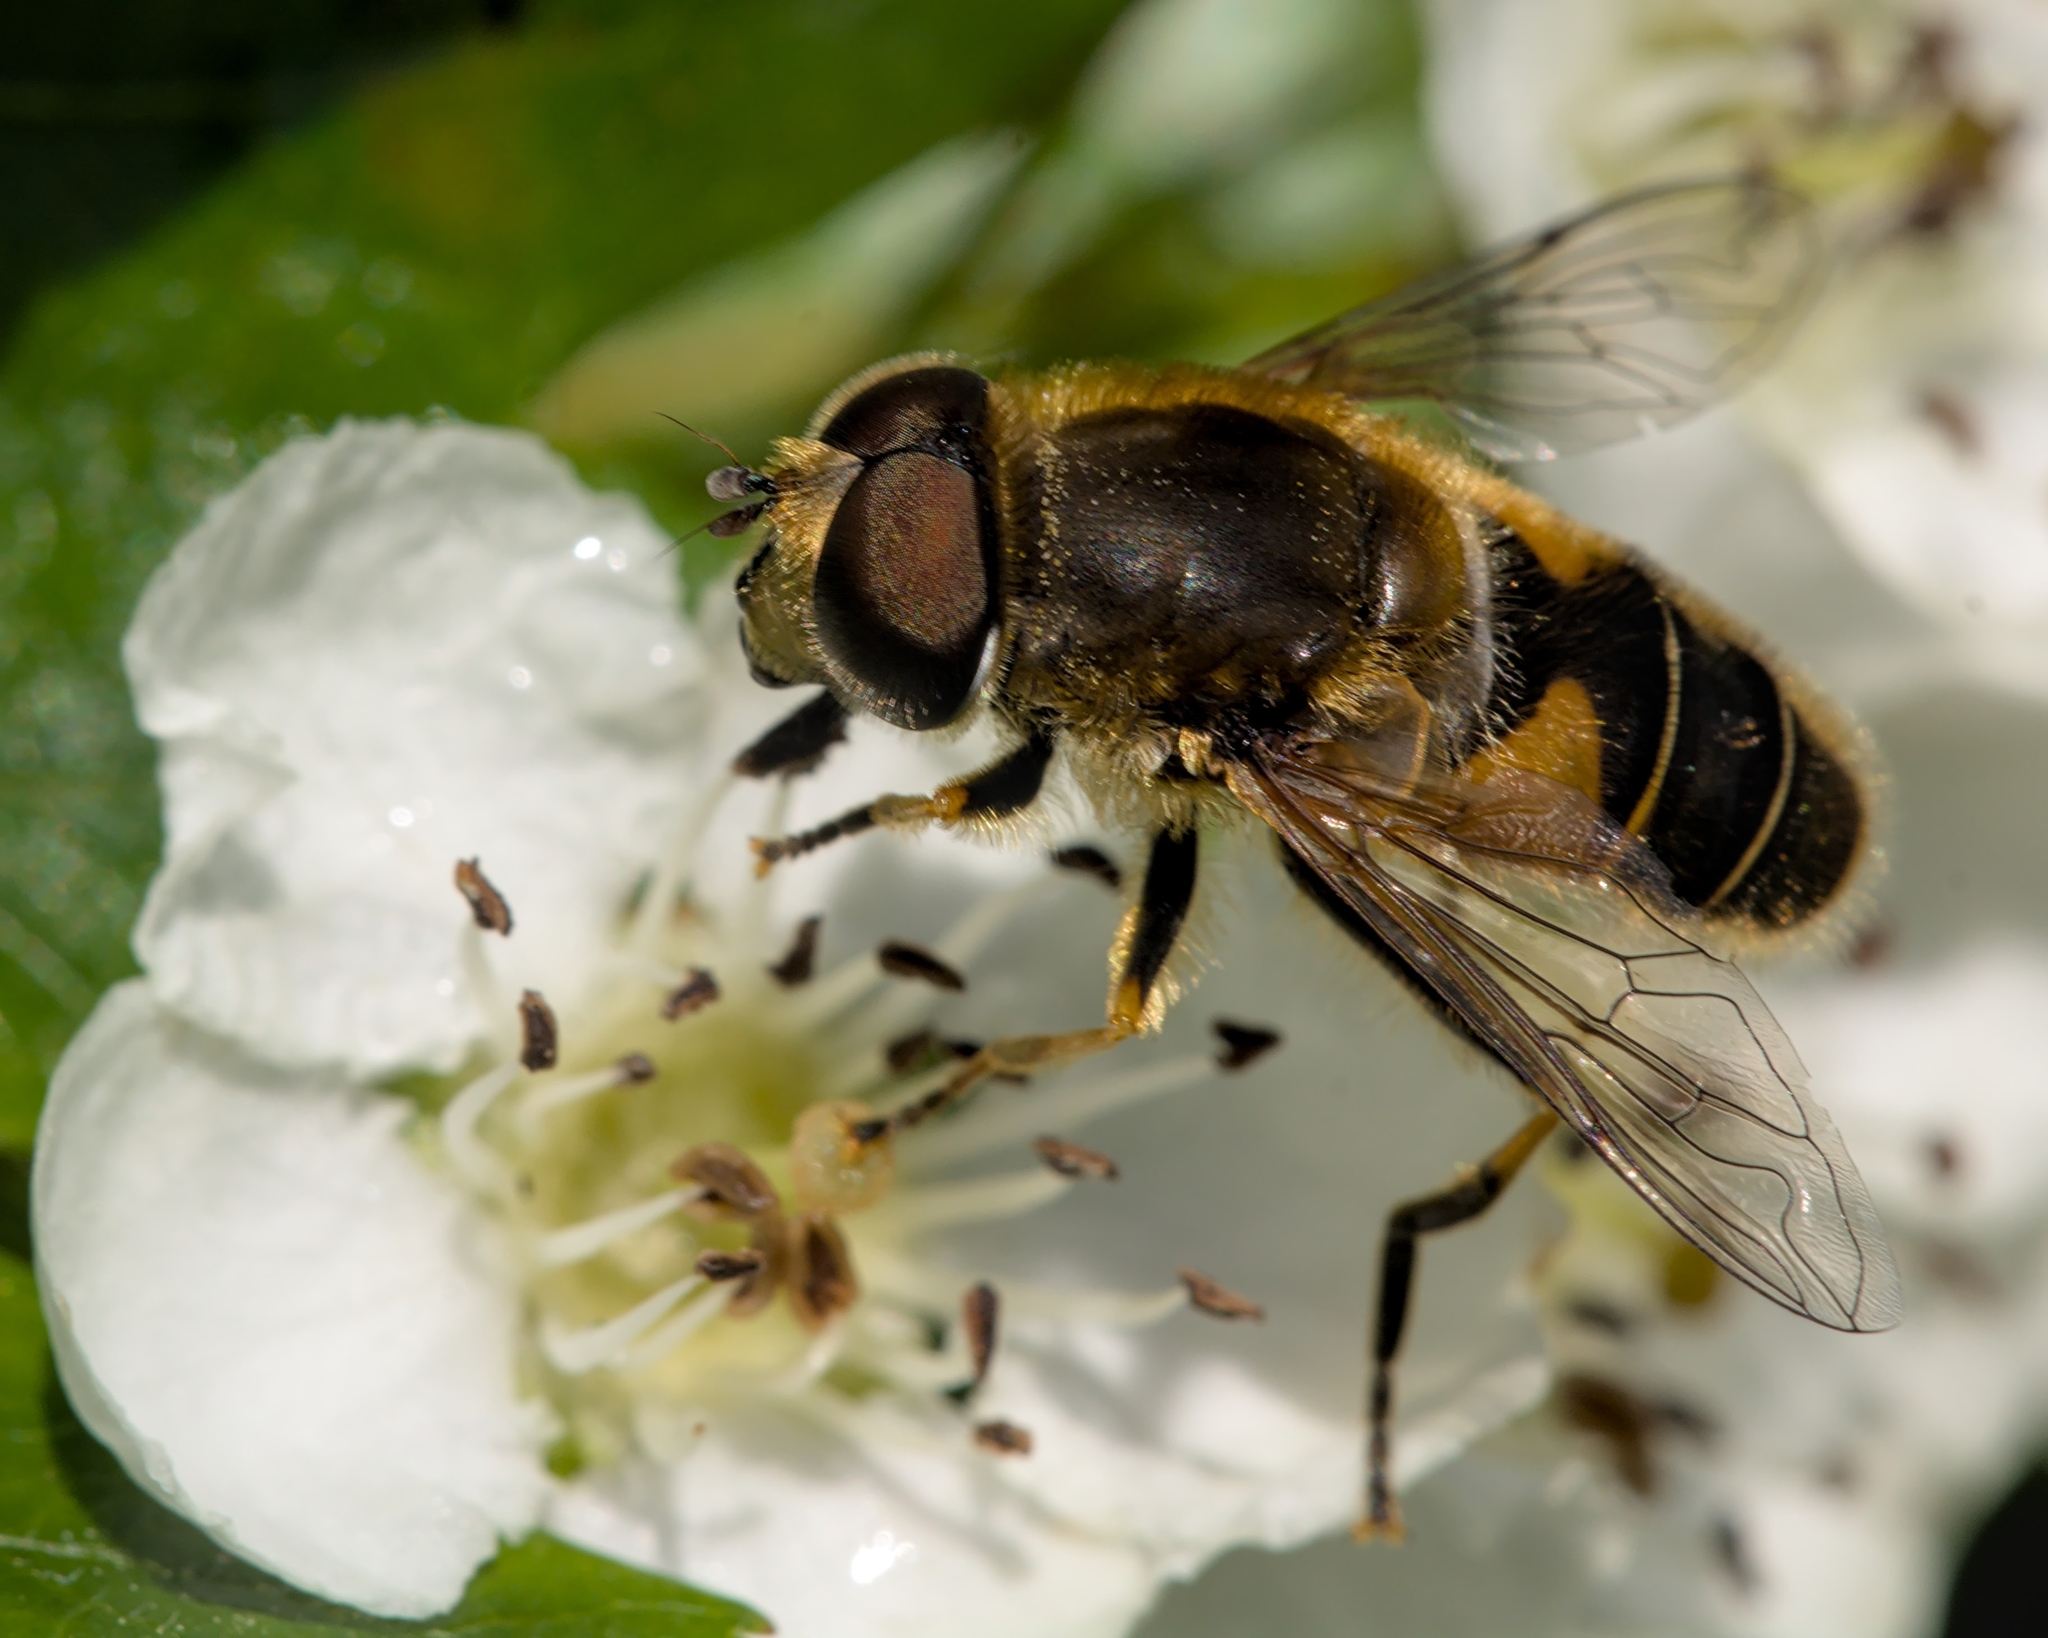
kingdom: Animalia
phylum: Arthropoda
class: Insecta
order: Diptera
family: Syrphidae
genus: Eristalis
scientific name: Eristalis nemorum
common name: Orange-spined drone fly
